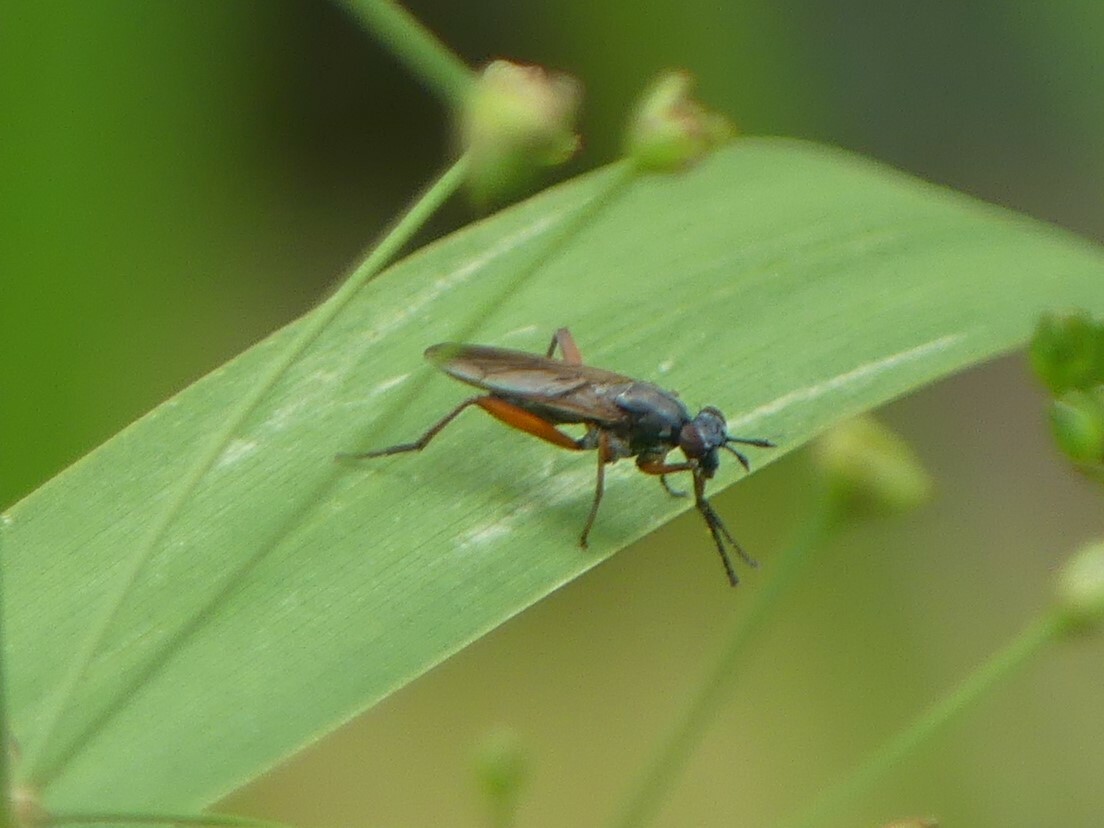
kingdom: Animalia
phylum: Arthropoda
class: Insecta
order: Diptera
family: Sciomyzidae
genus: Sepedon
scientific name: Sepedon sphegea
